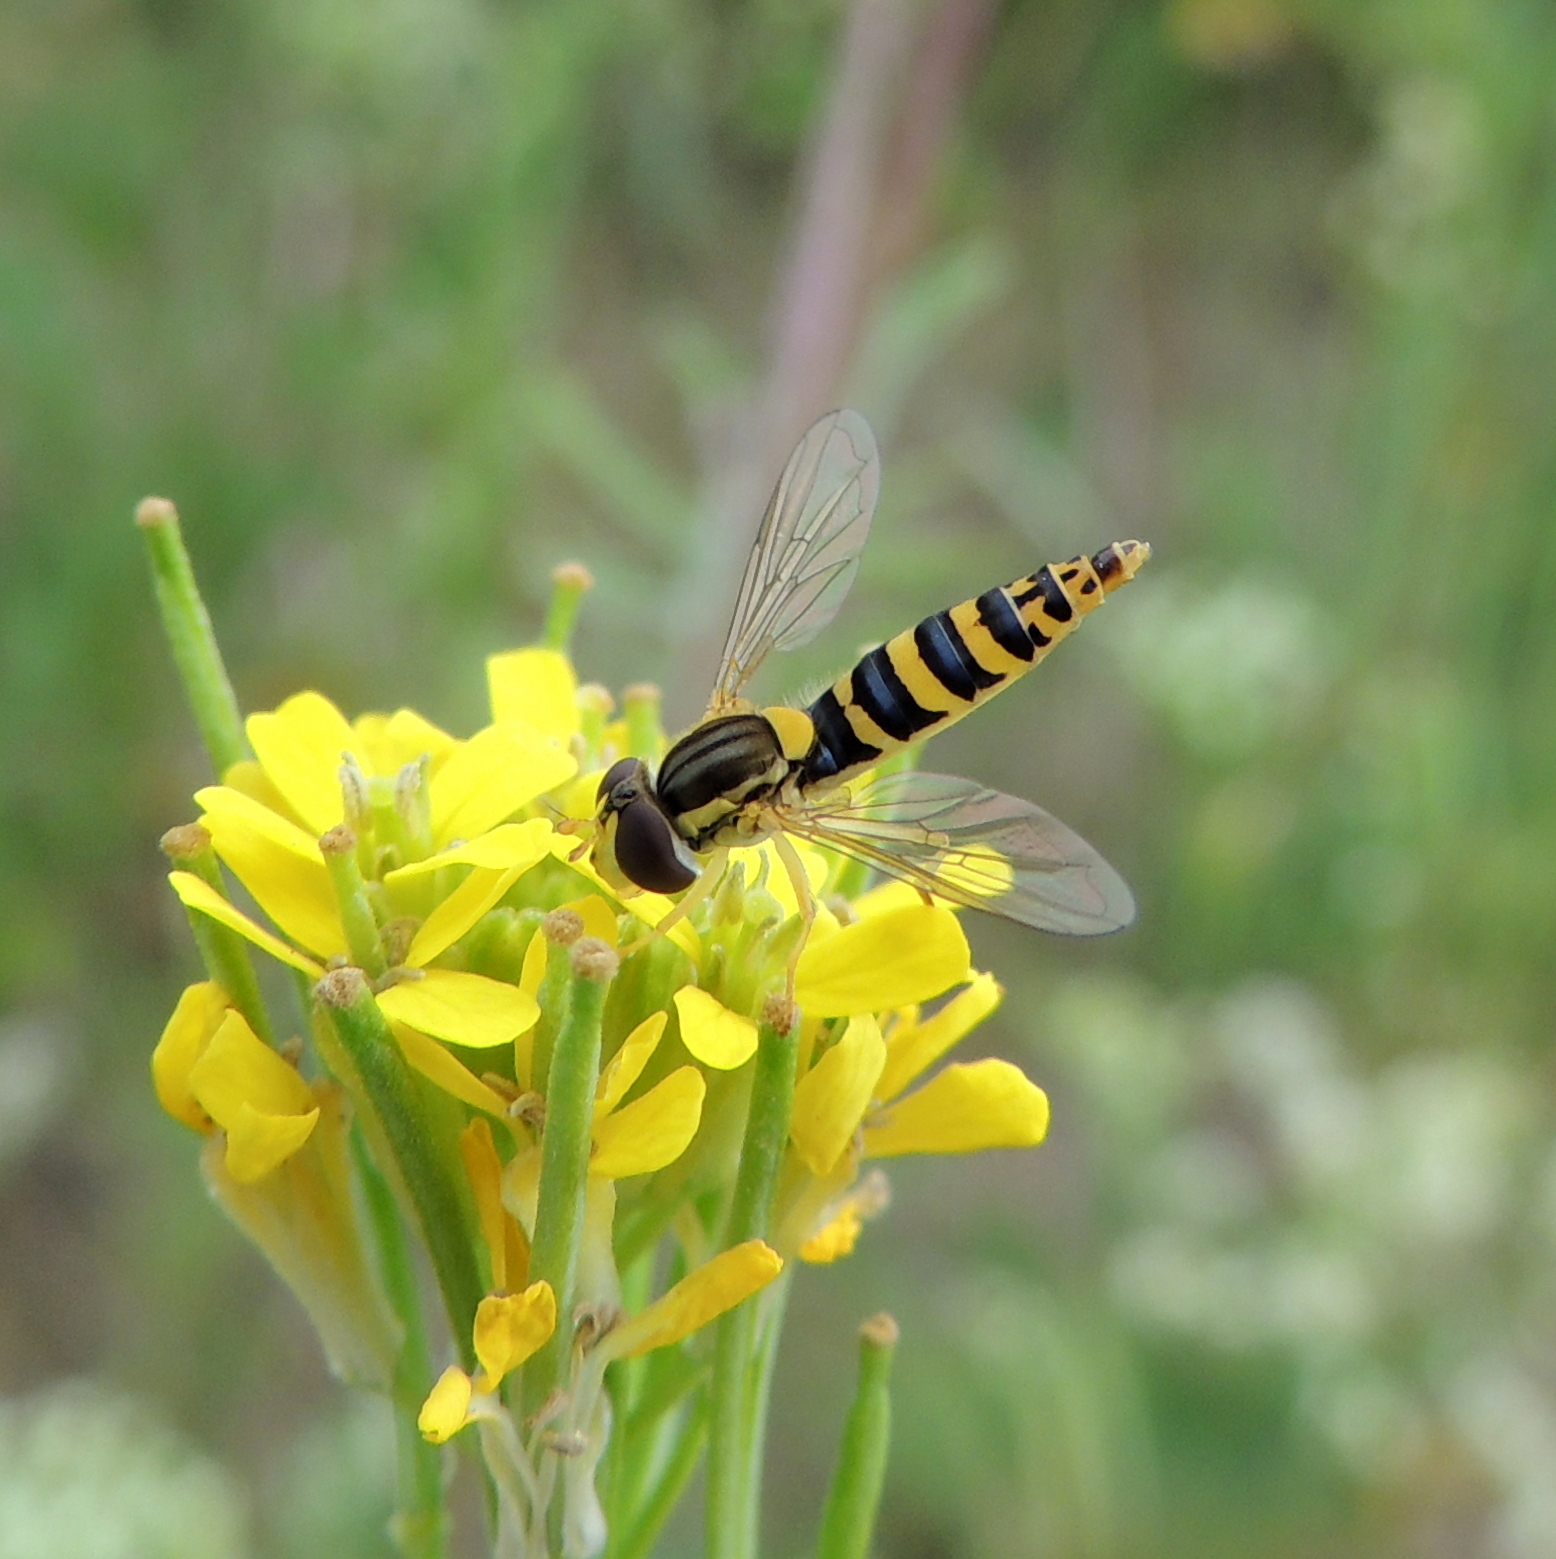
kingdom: Animalia
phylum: Arthropoda
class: Insecta
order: Diptera
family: Syrphidae
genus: Sphaerophoria
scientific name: Sphaerophoria
